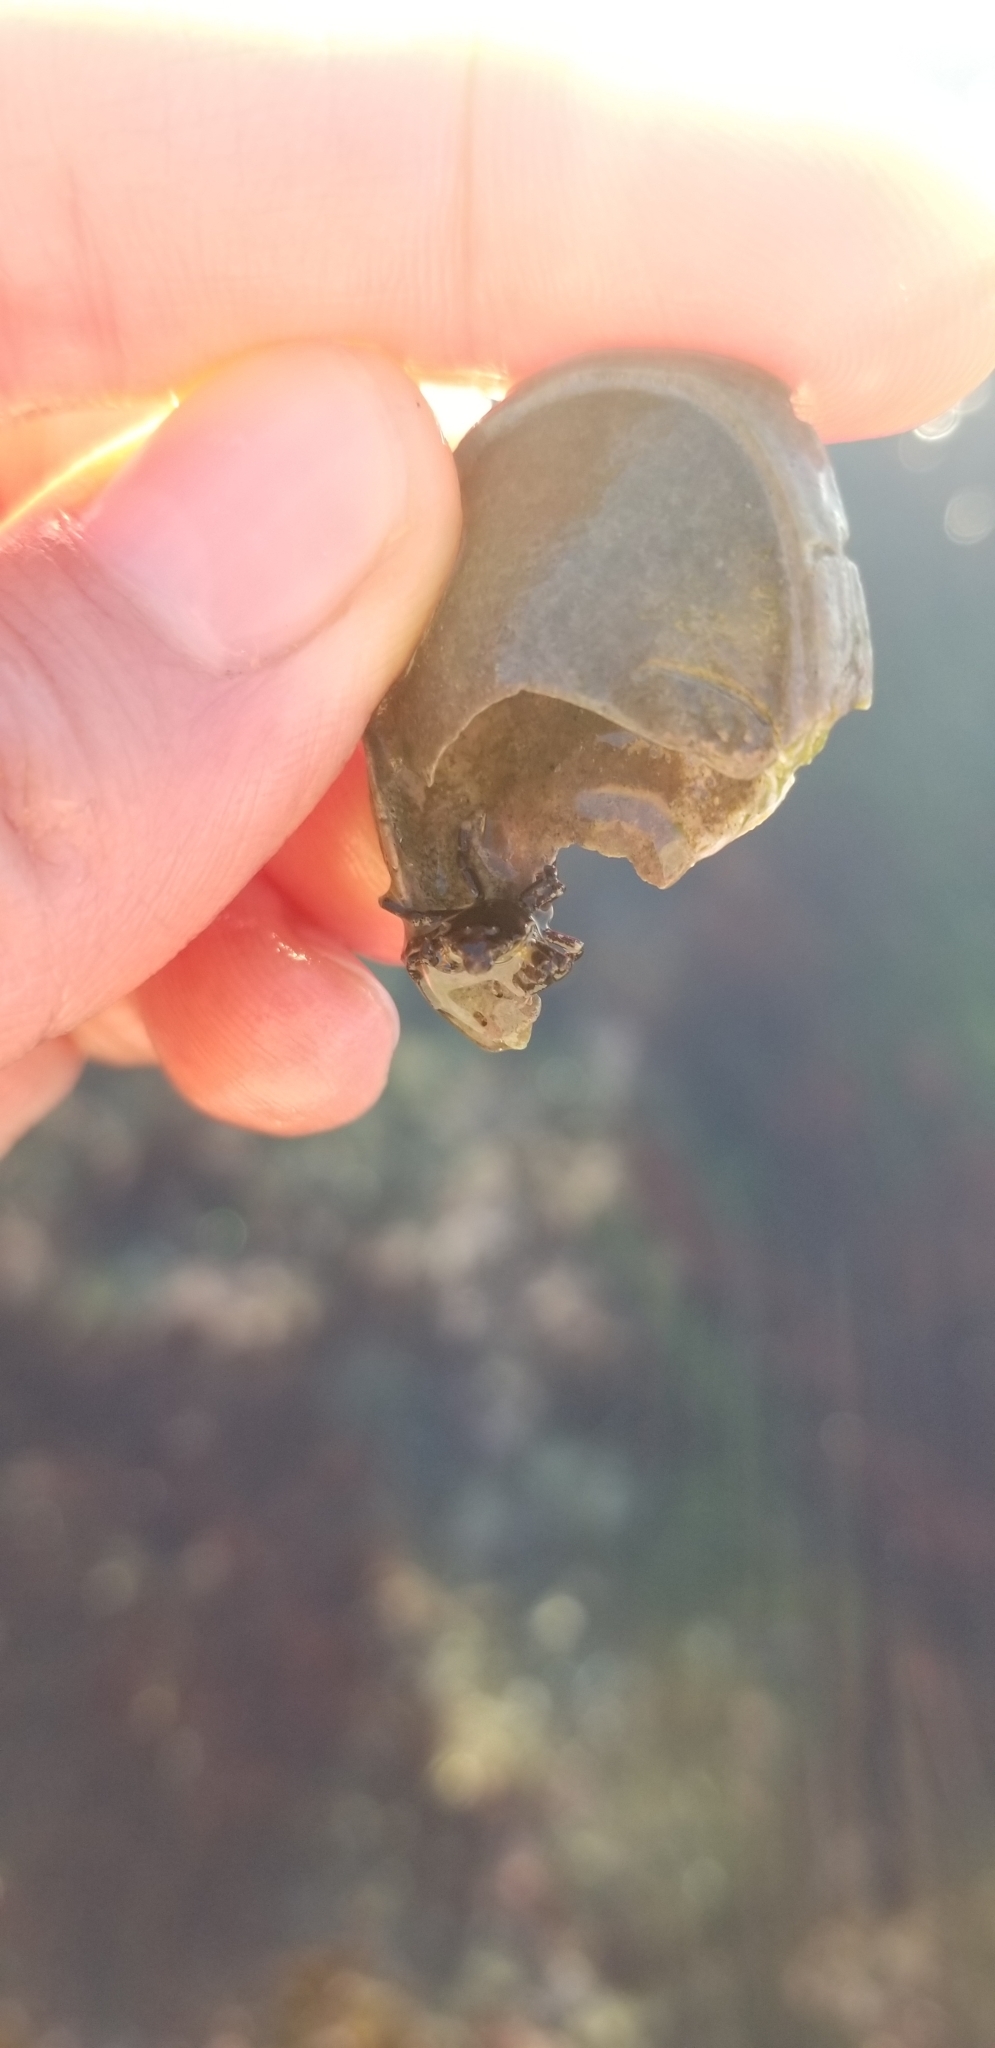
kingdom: Animalia
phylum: Arthropoda
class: Malacostraca
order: Decapoda
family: Epialtidae
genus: Pugettia
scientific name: Pugettia producta
